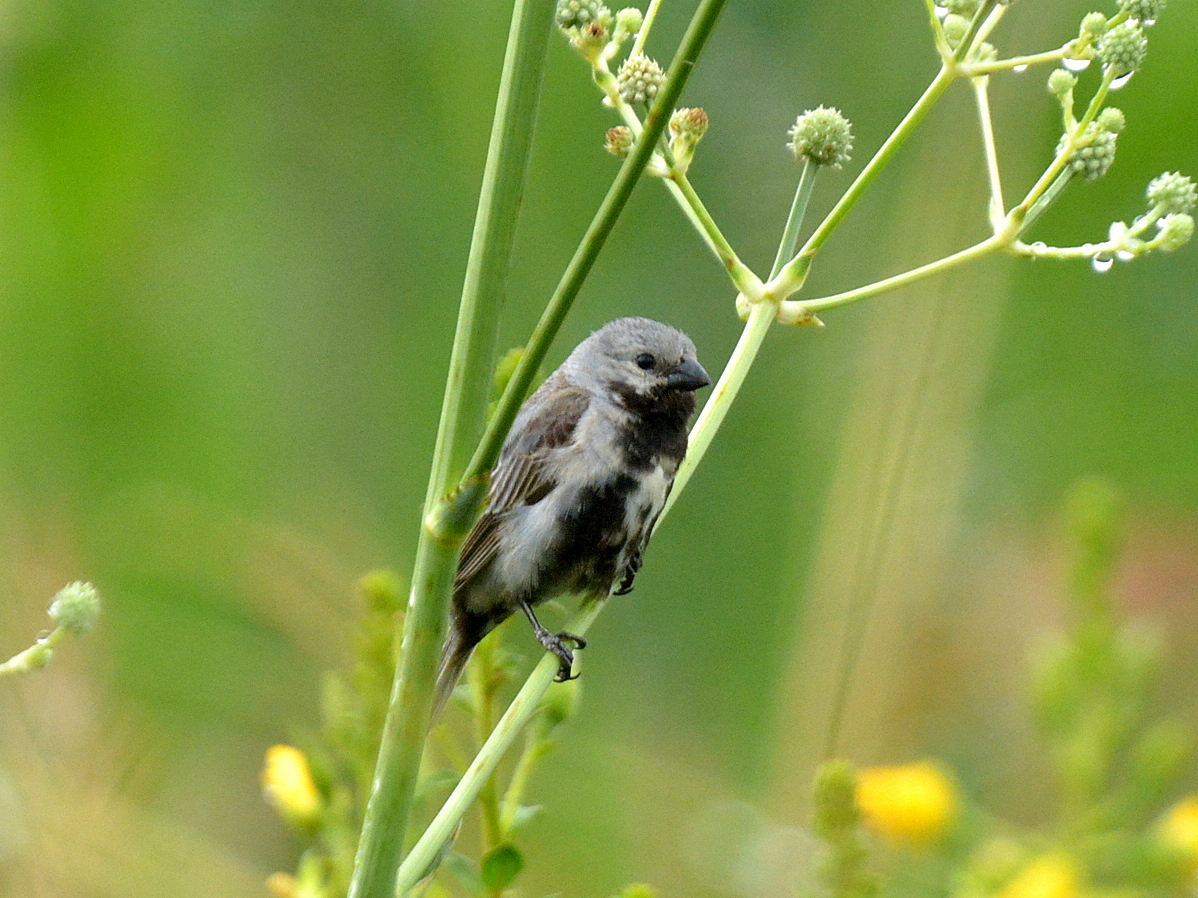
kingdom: Animalia
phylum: Chordata
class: Aves
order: Passeriformes
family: Thraupidae
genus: Sporophila
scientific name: Sporophila melanogaster
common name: Black-bellied seedeater
